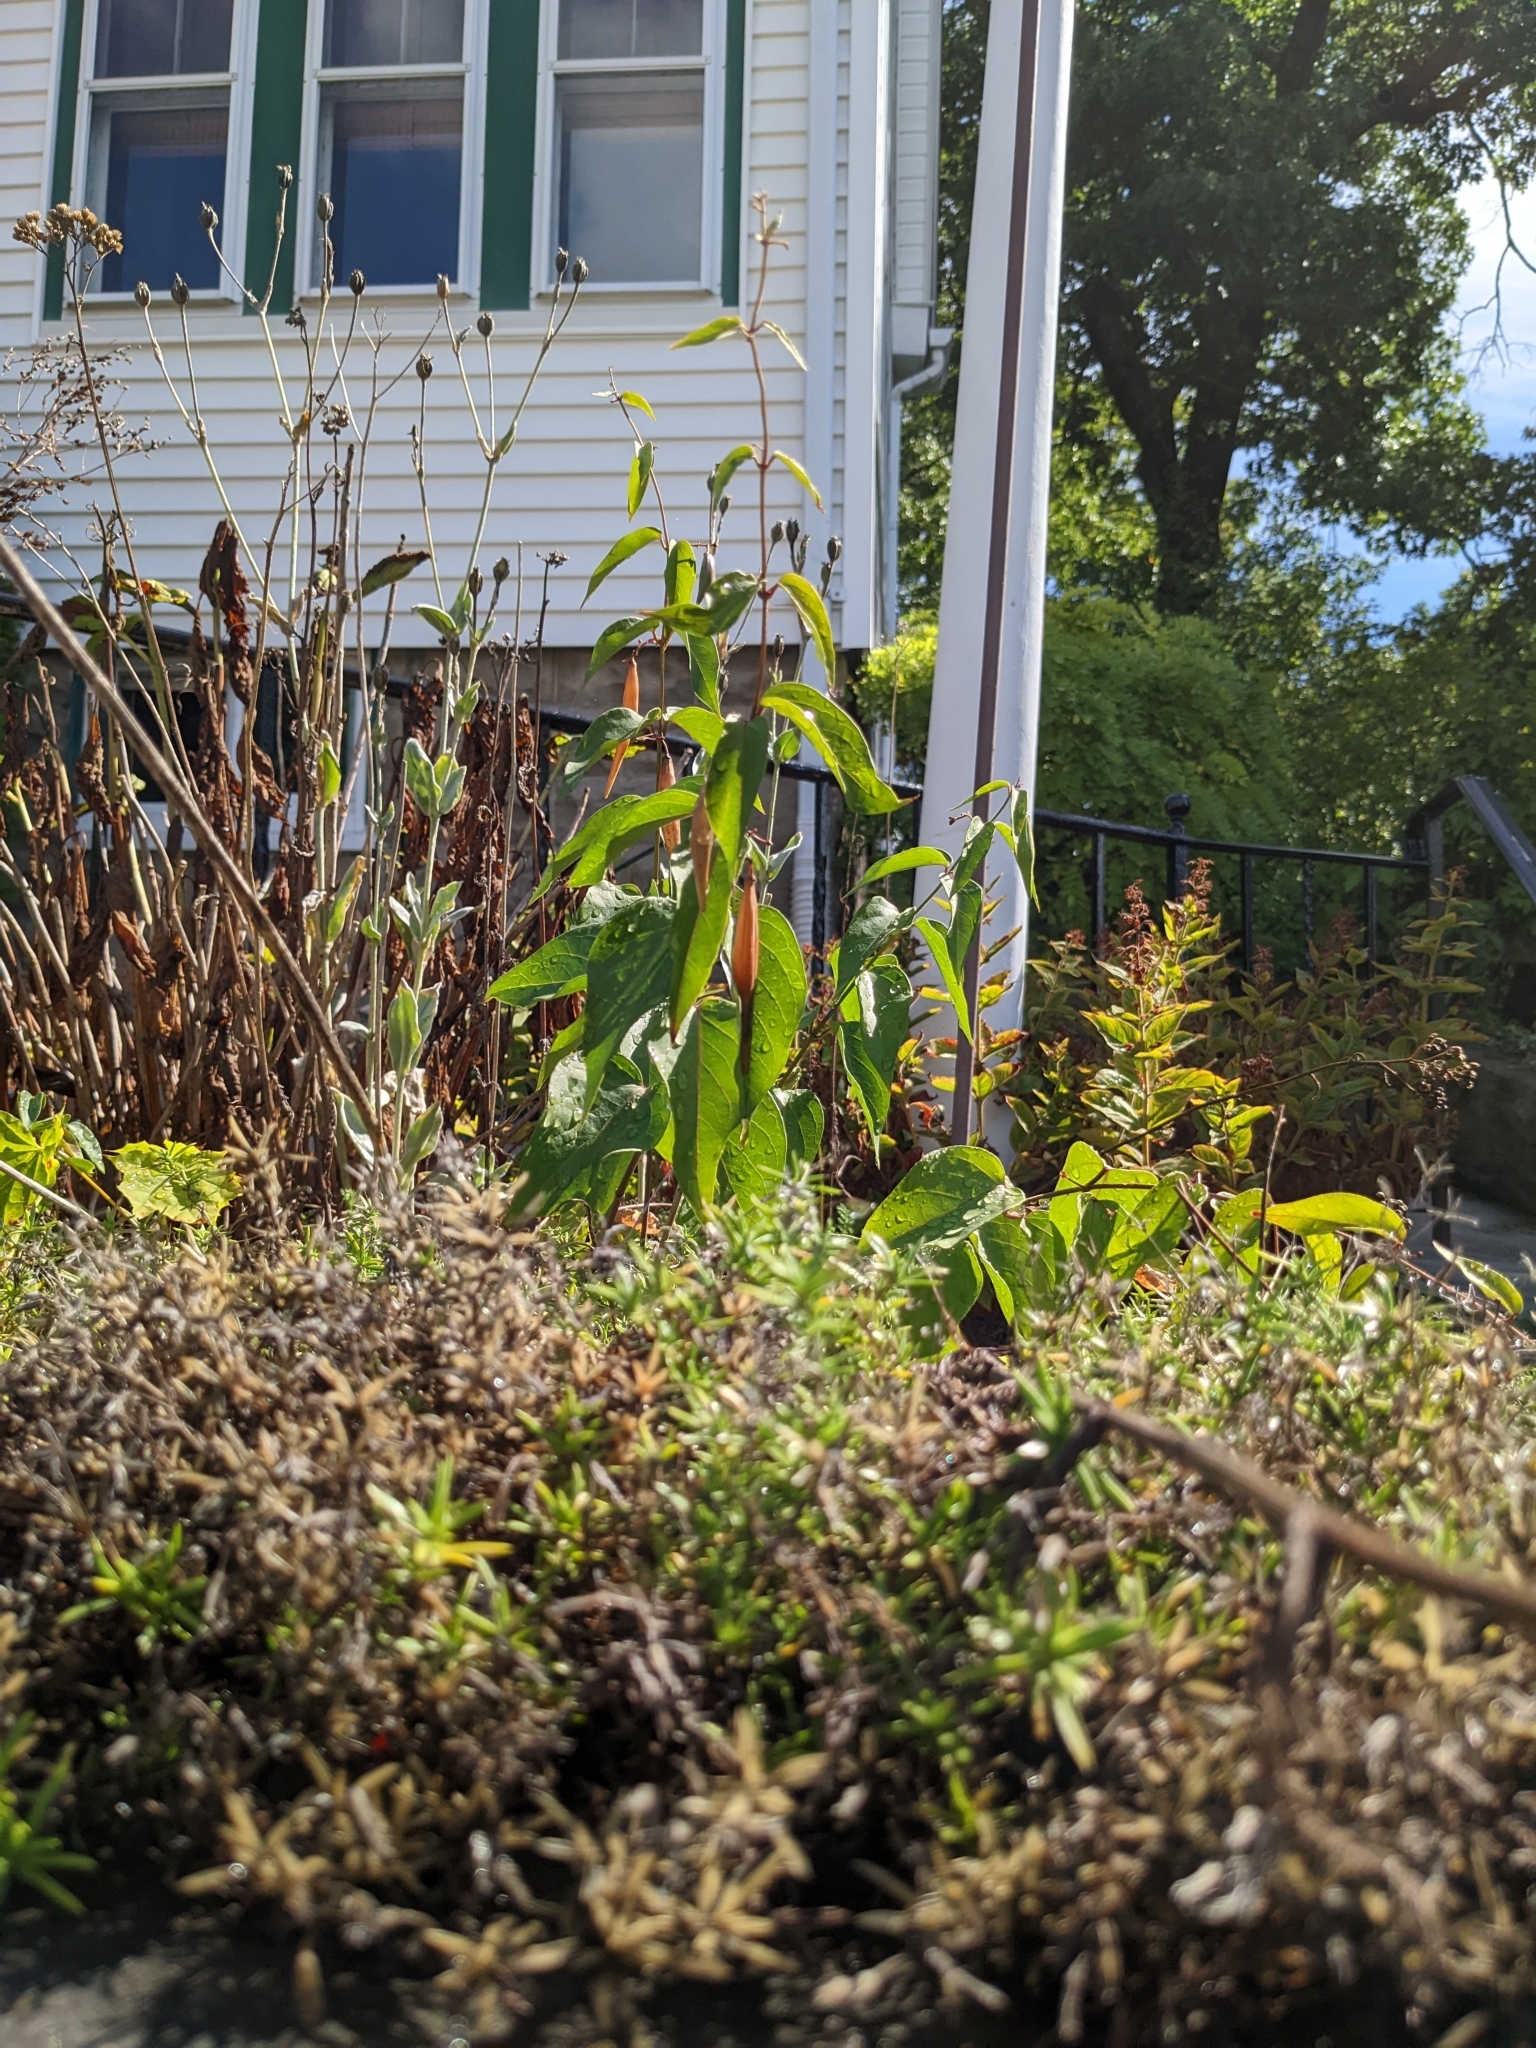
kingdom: Plantae
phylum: Tracheophyta
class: Magnoliopsida
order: Gentianales
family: Apocynaceae
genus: Vincetoxicum
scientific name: Vincetoxicum nigrum
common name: Black swallow-wort
